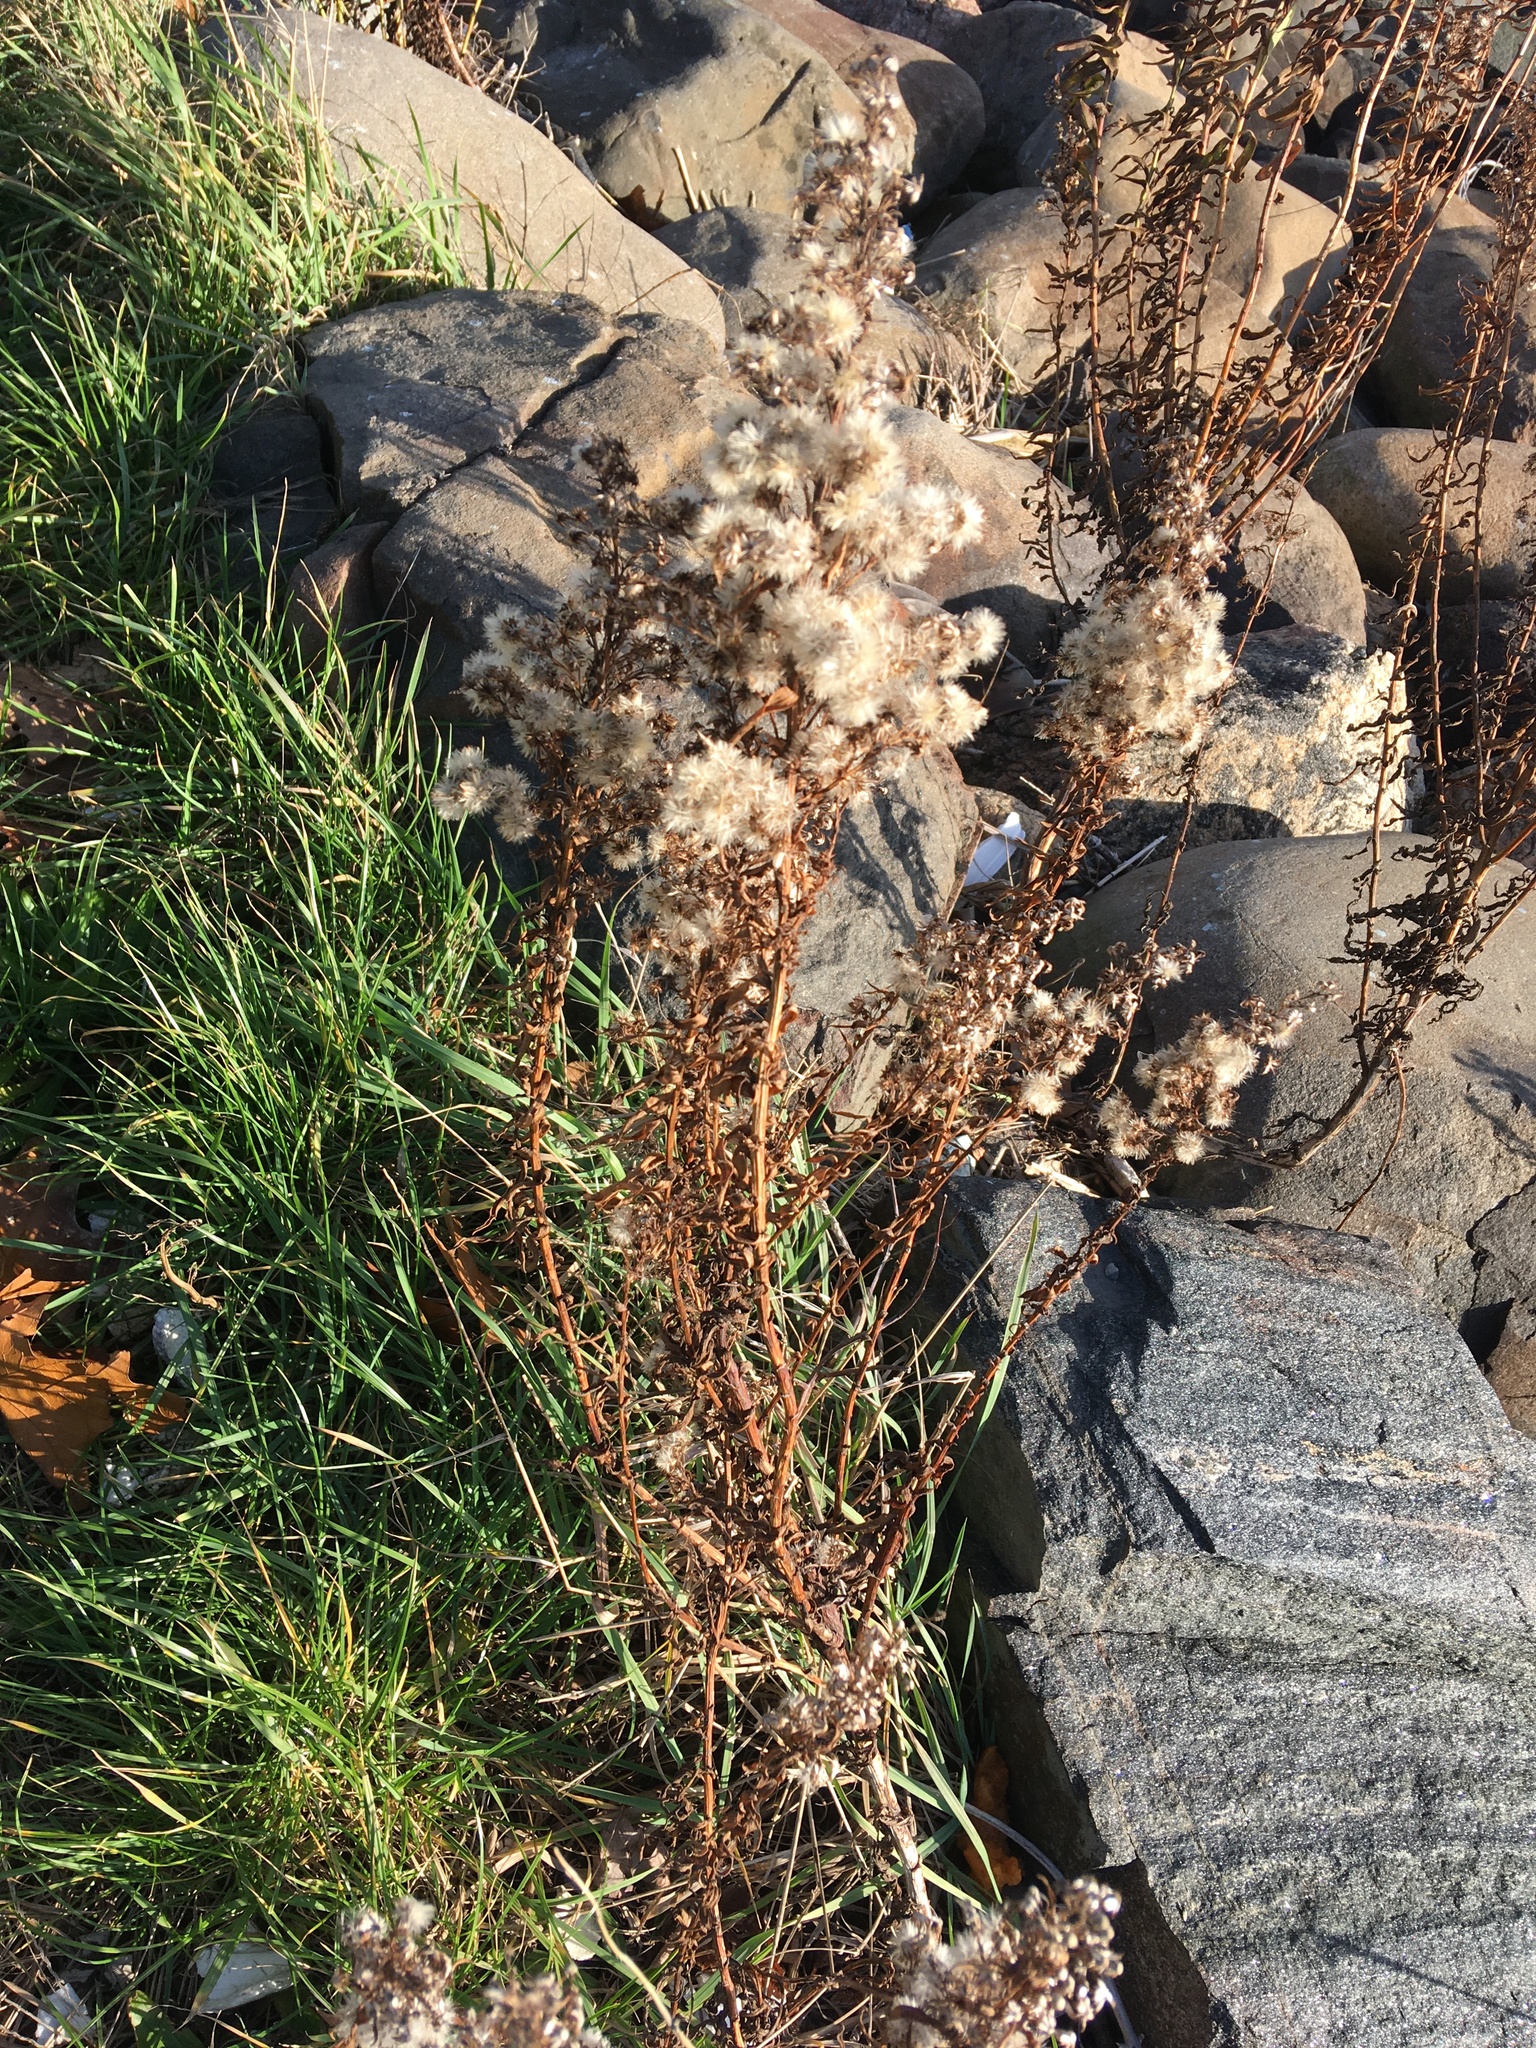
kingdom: Plantae
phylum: Tracheophyta
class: Magnoliopsida
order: Asterales
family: Asteraceae
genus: Solidago
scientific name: Solidago sempervirens
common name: Salt-marsh goldenrod
